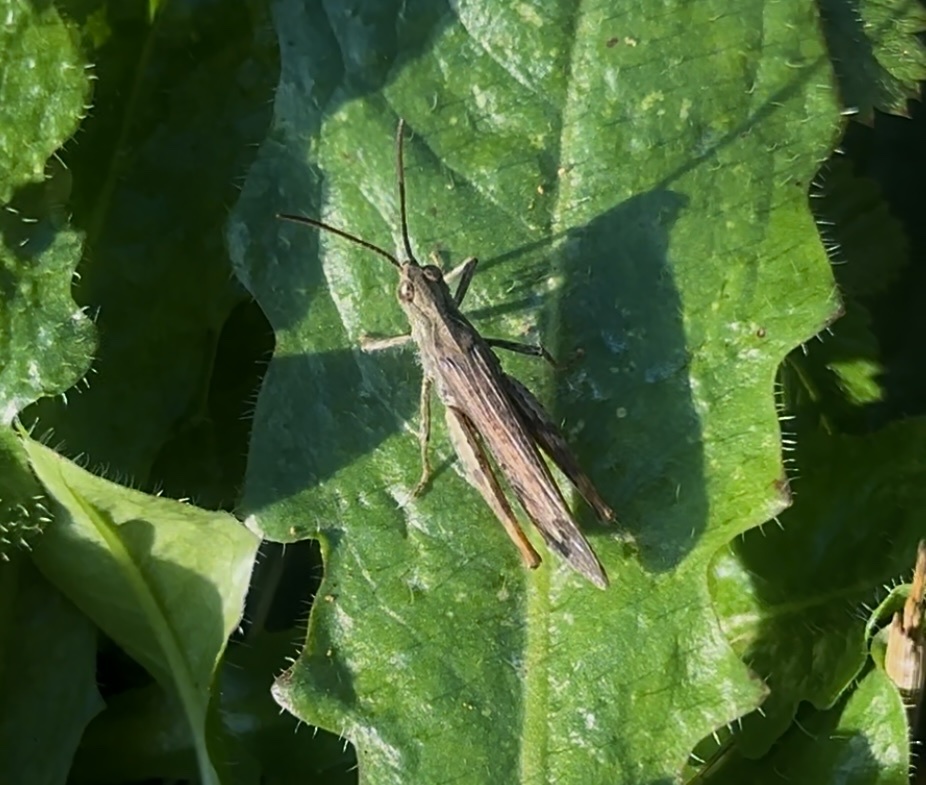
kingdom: Animalia
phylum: Arthropoda
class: Insecta
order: Orthoptera
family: Acrididae
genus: Chorthippus
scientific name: Chorthippus brunneus
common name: Field grasshopper
